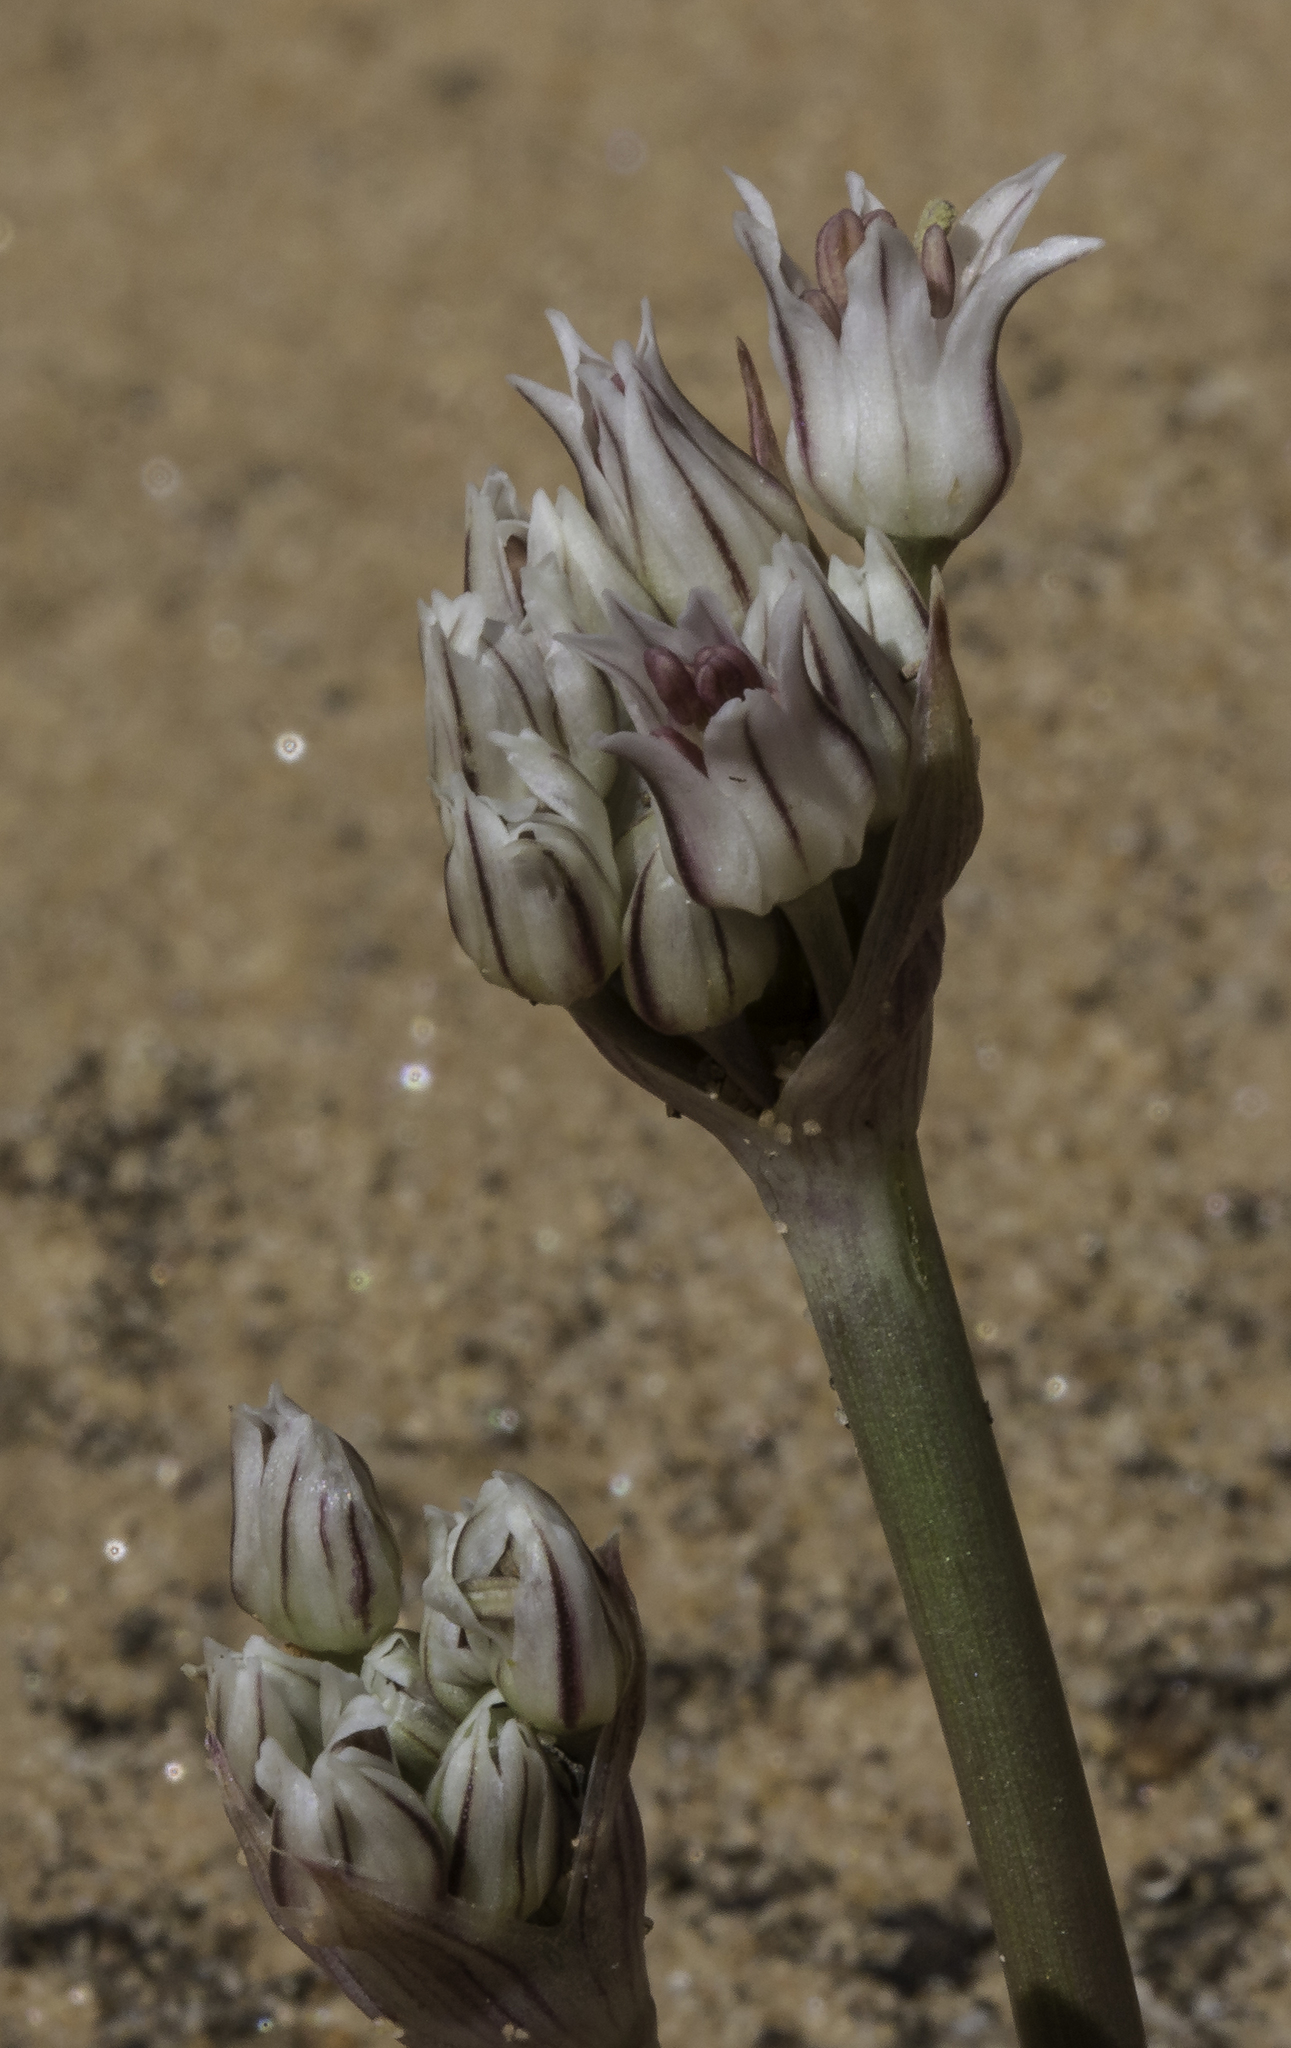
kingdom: Plantae
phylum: Tracheophyta
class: Liliopsida
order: Asparagales
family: Amaryllidaceae
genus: Allium
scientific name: Allium macropetalum
